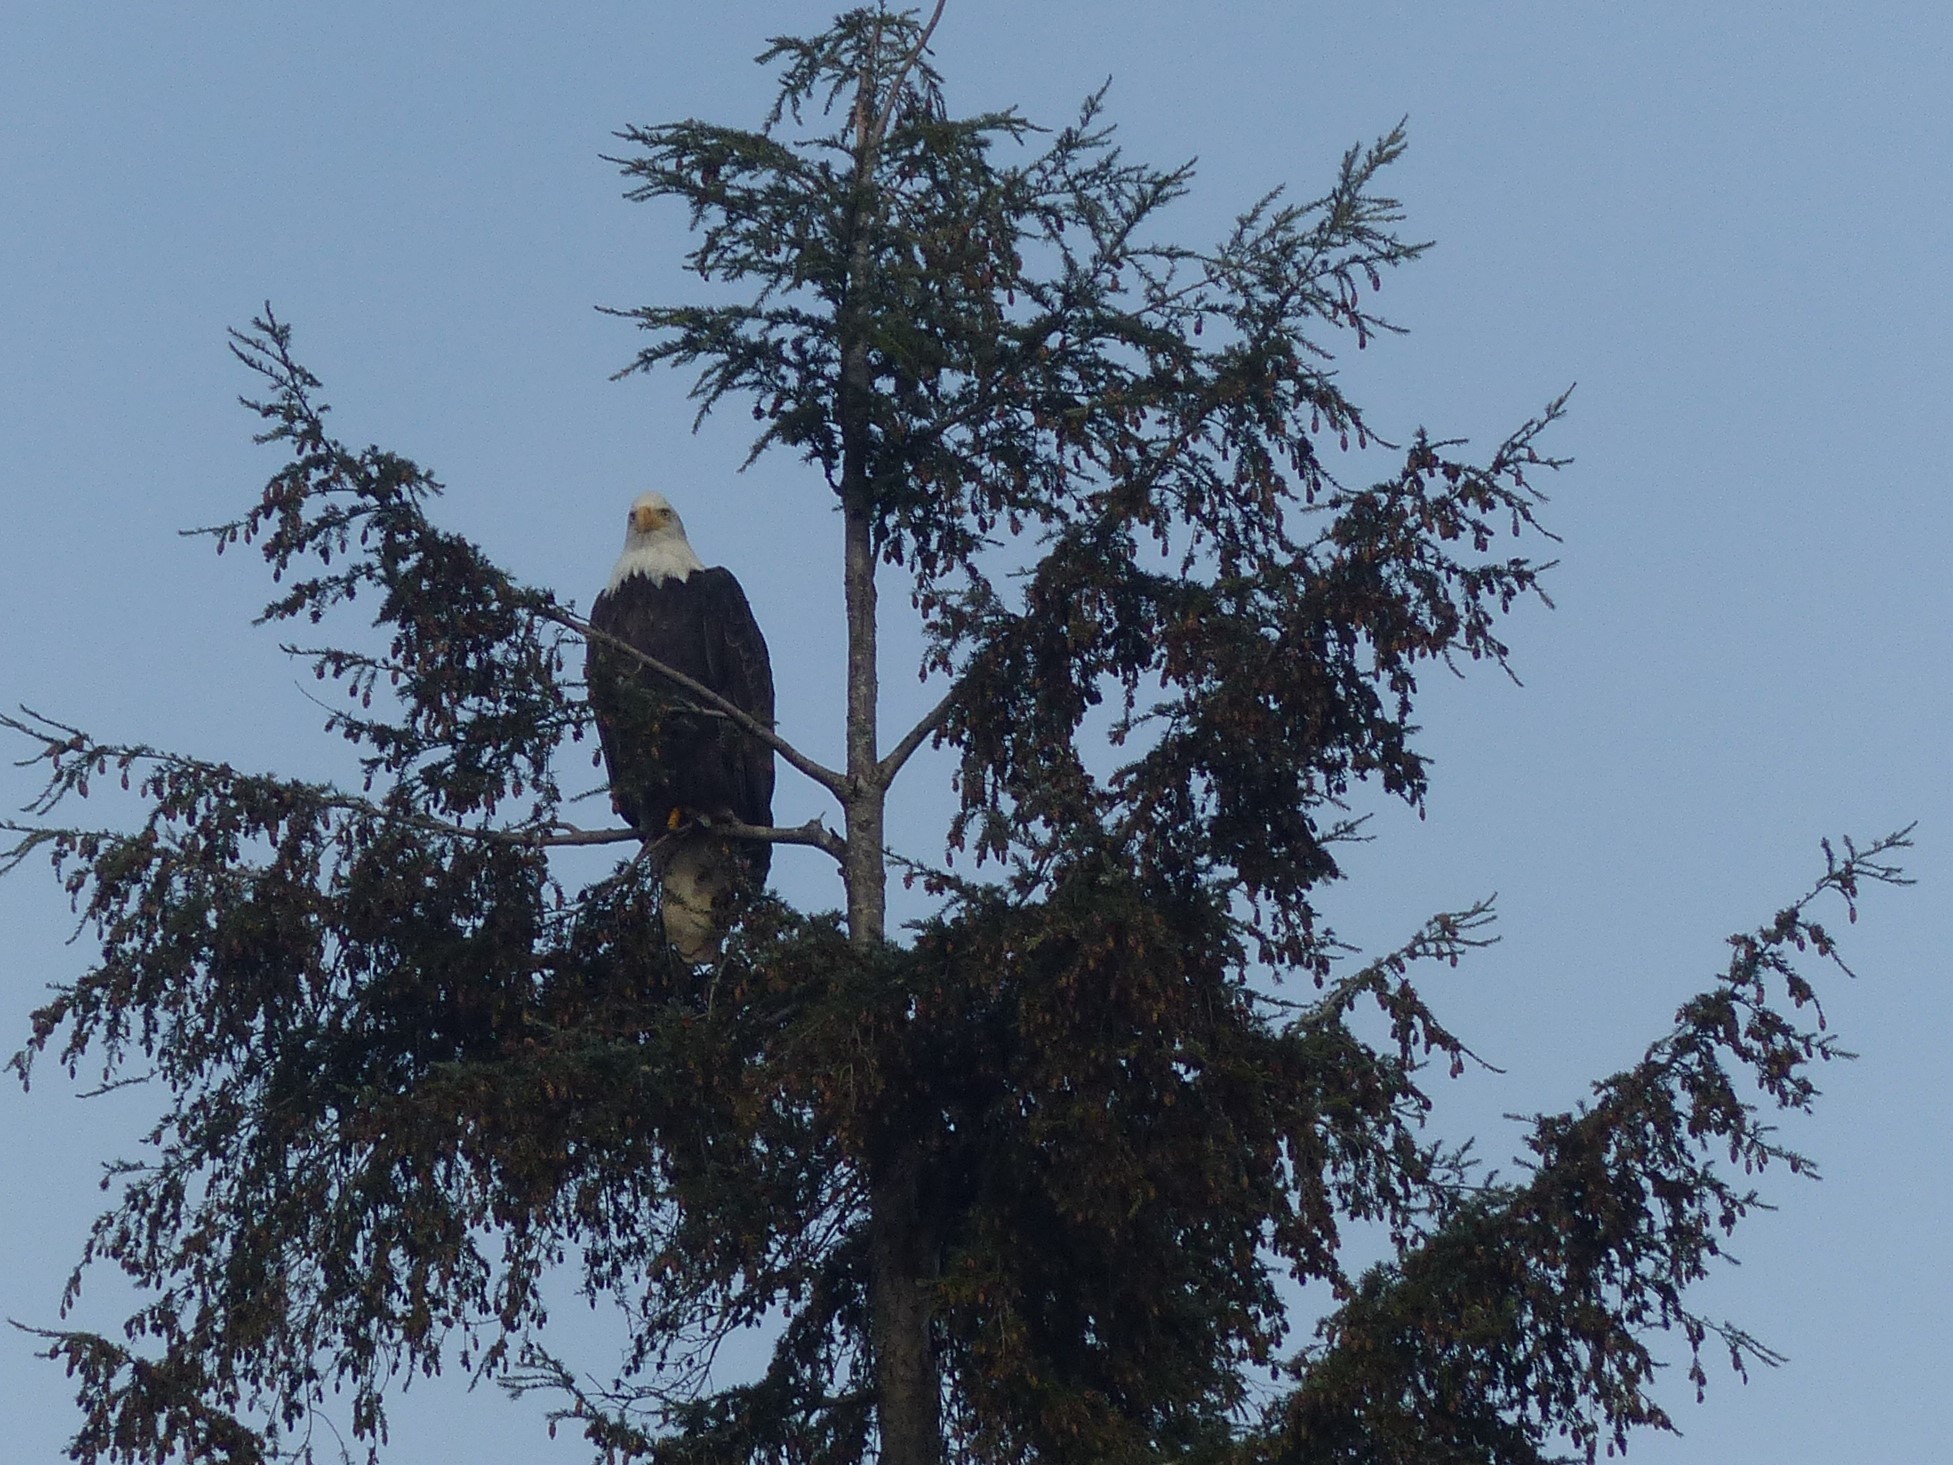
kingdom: Animalia
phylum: Chordata
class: Aves
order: Accipitriformes
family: Accipitridae
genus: Haliaeetus
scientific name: Haliaeetus leucocephalus
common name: Bald eagle
